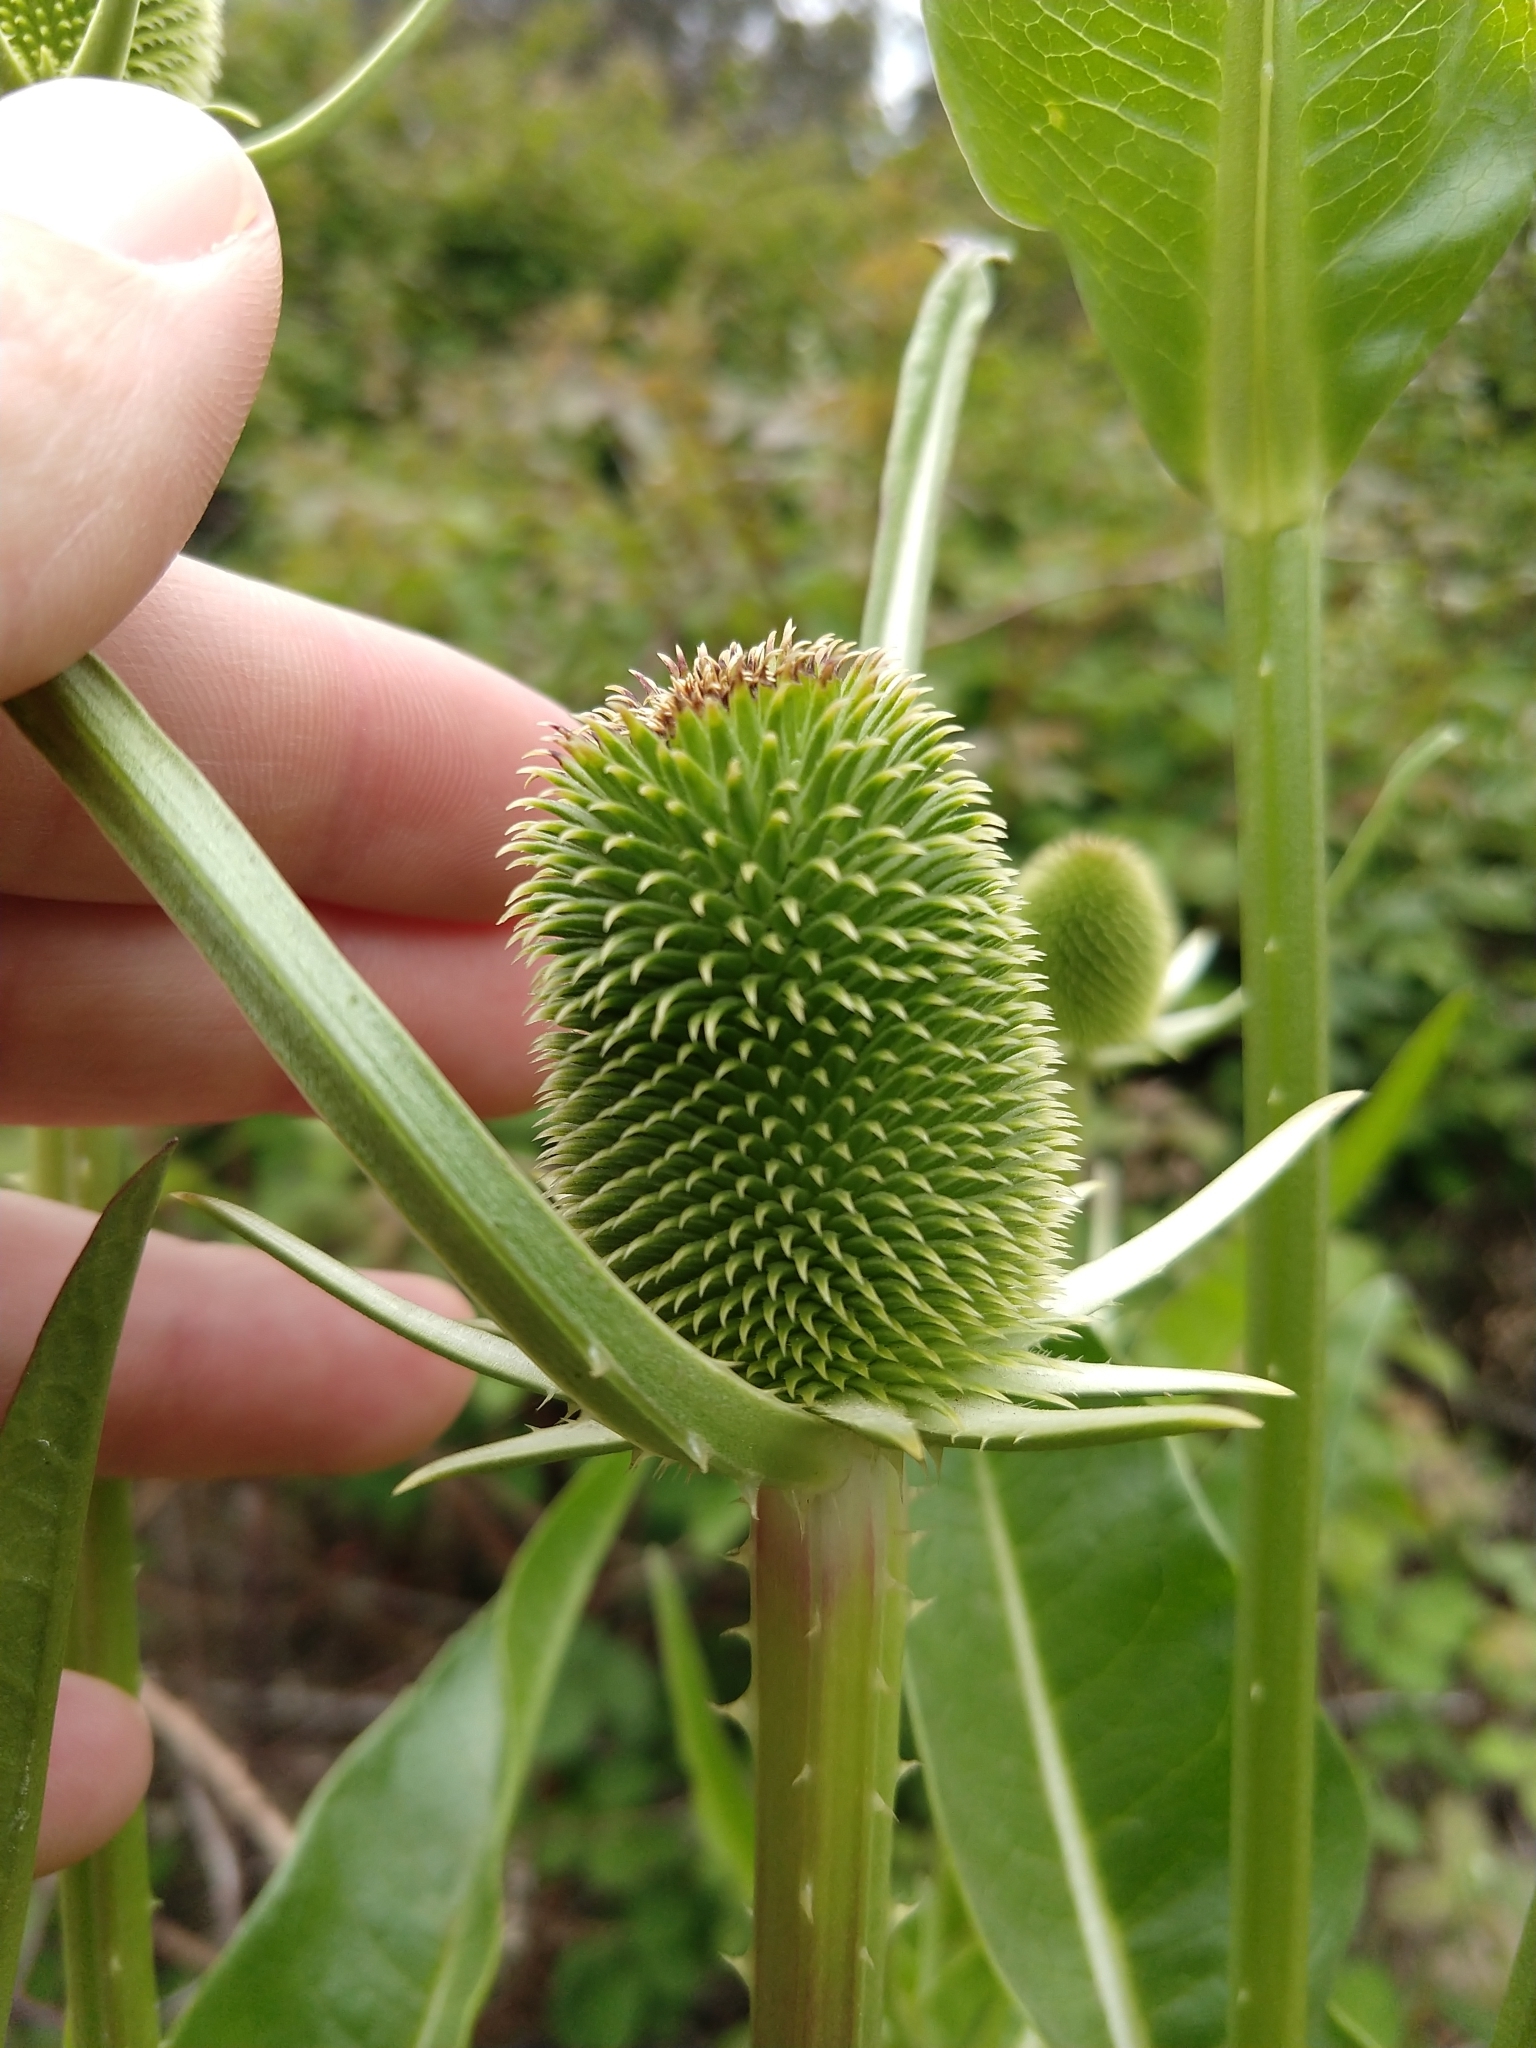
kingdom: Plantae
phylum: Tracheophyta
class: Magnoliopsida
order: Dipsacales
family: Caprifoliaceae
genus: Dipsacus
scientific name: Dipsacus sativus
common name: Fuller's teasel
